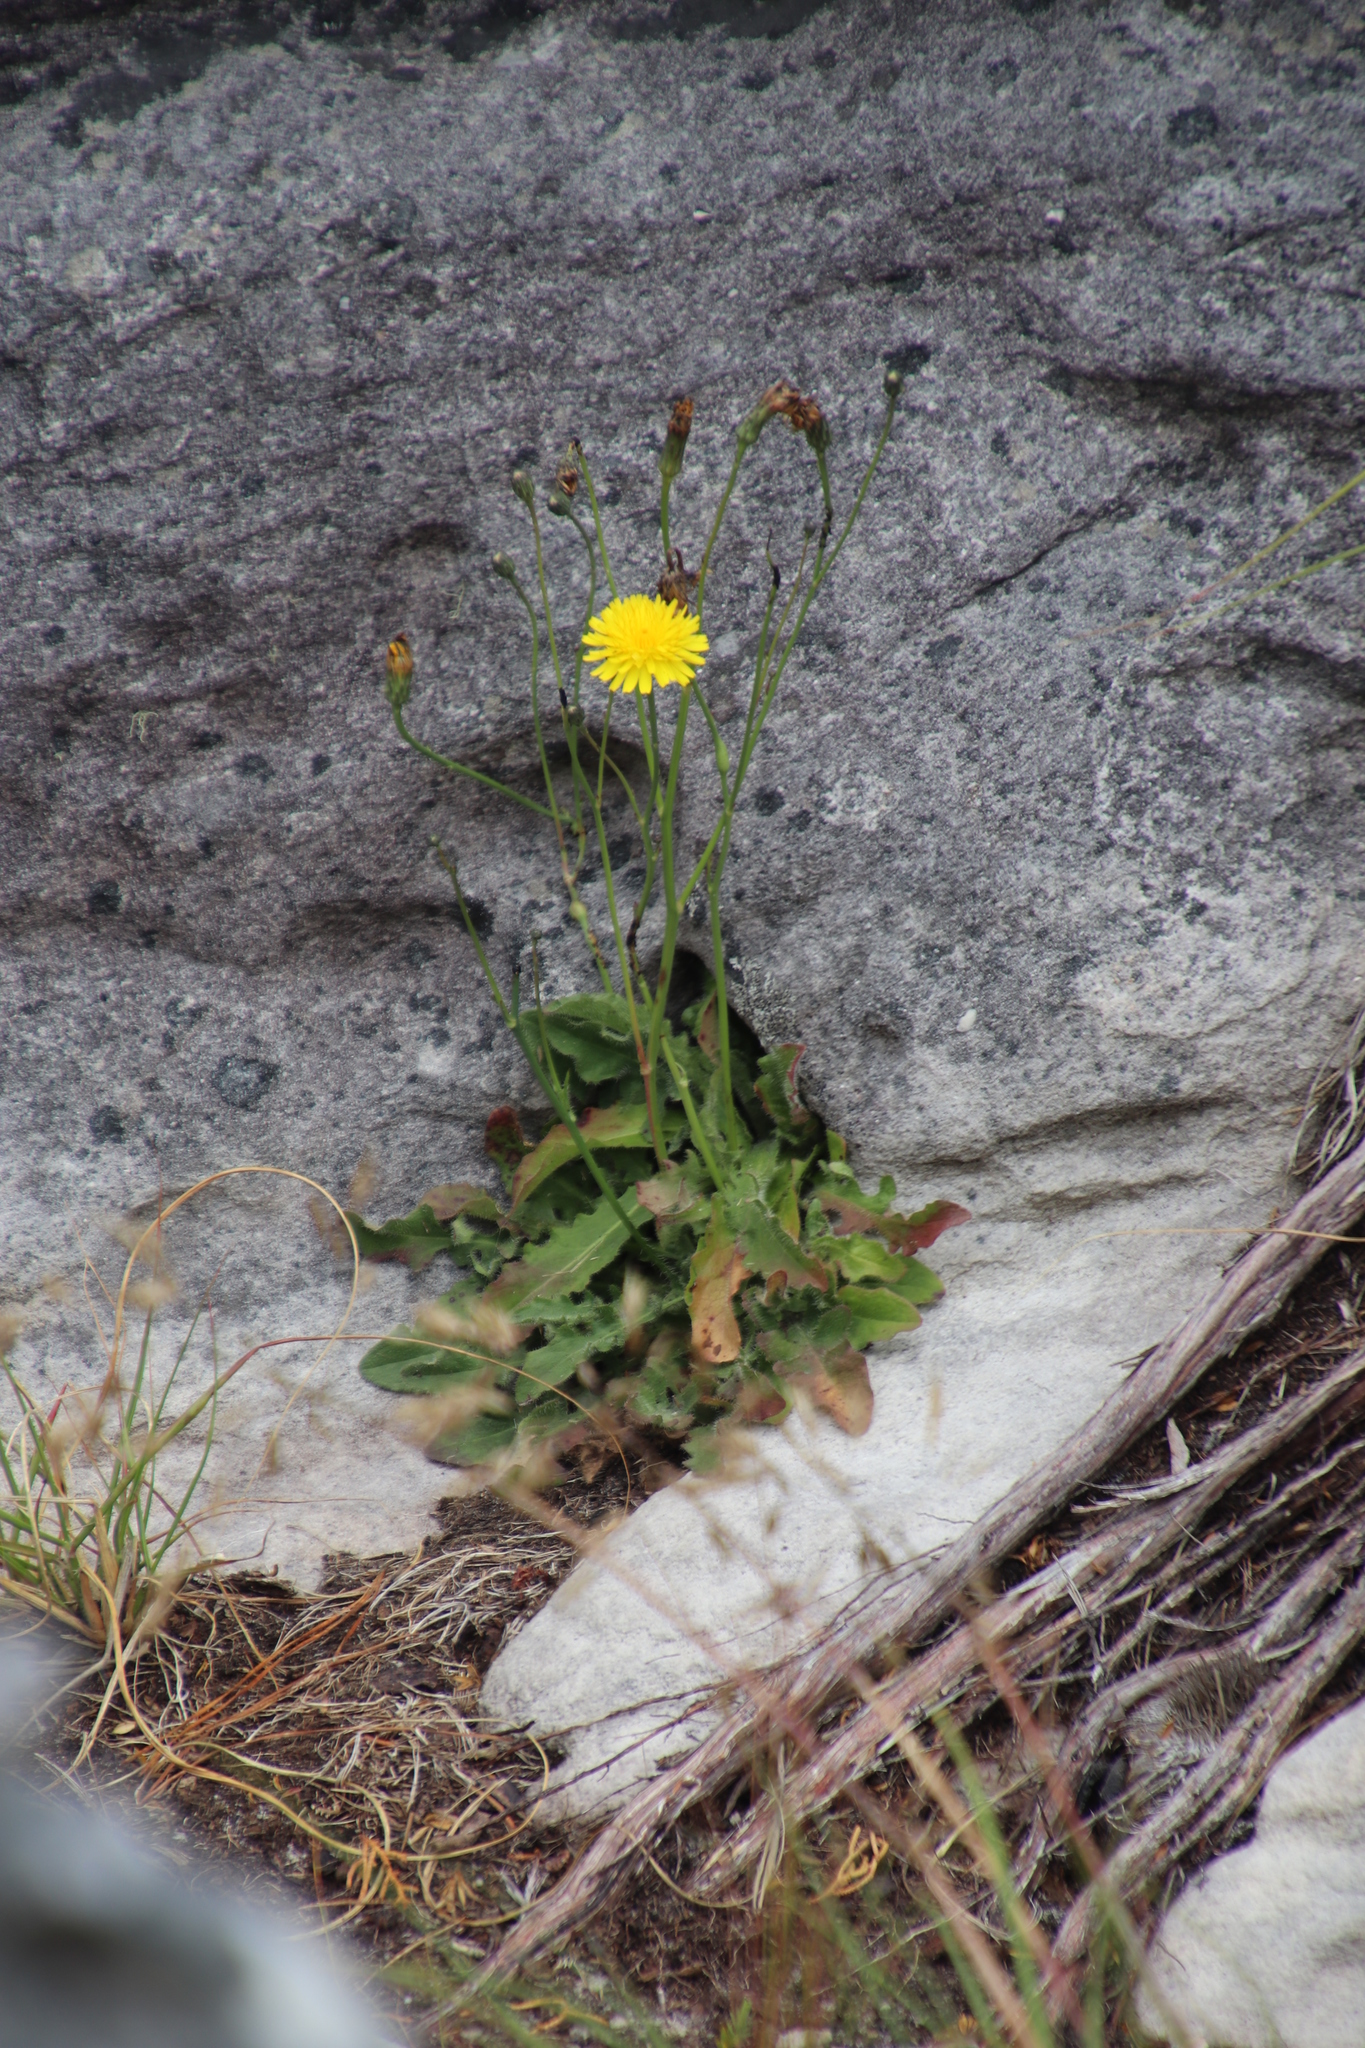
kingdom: Plantae
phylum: Tracheophyta
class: Magnoliopsida
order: Asterales
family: Asteraceae
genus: Hypochaeris
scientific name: Hypochaeris radicata
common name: Flatweed
